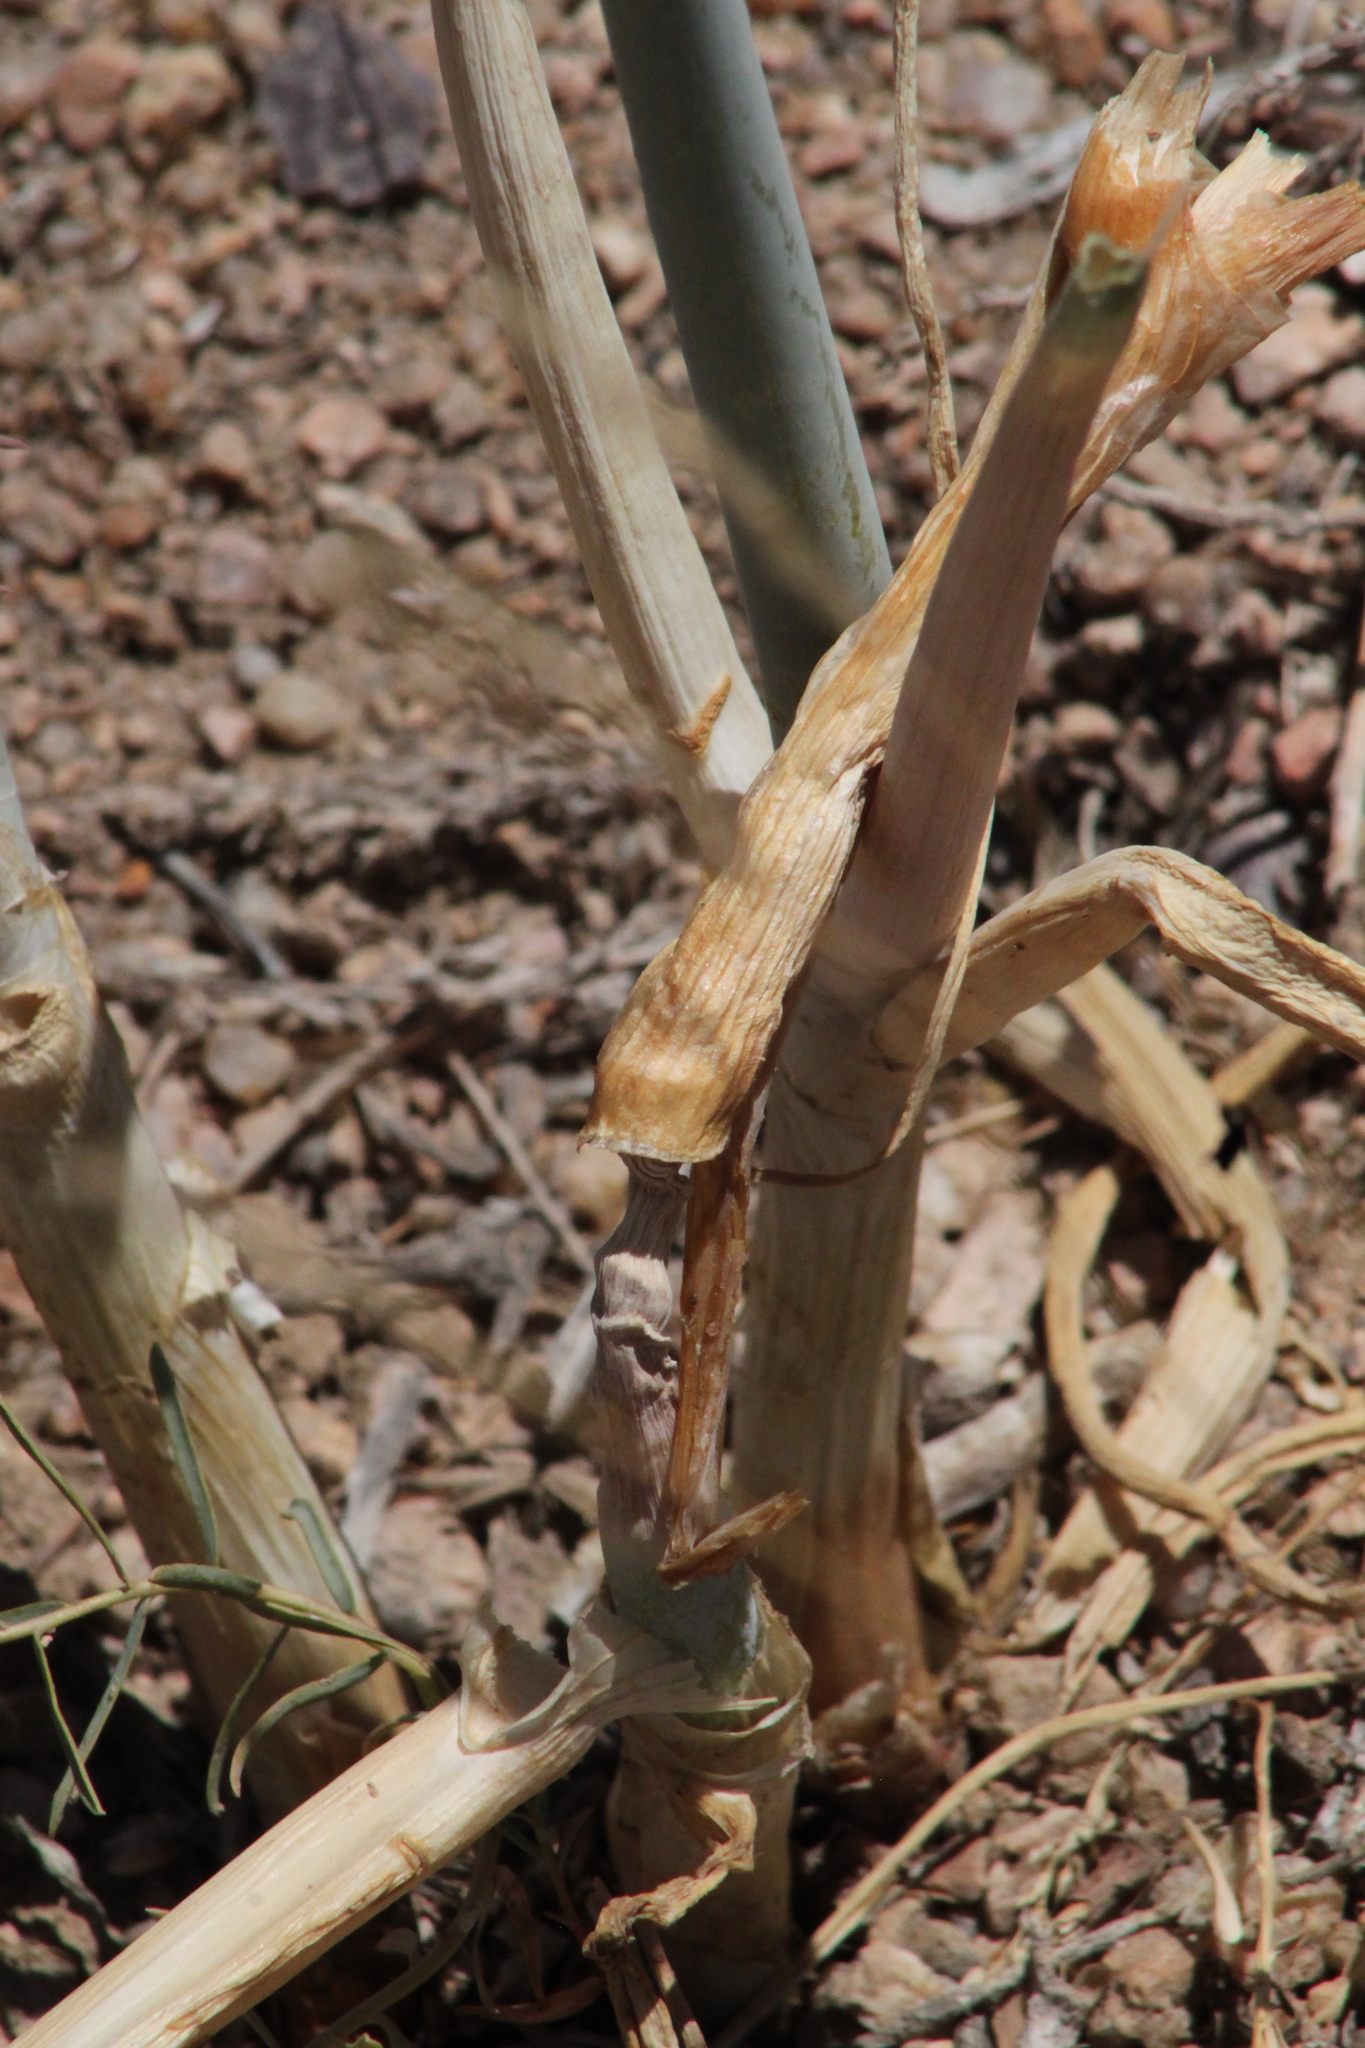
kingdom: Plantae
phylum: Tracheophyta
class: Liliopsida
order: Asparagales
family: Amaryllidaceae
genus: Allium
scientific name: Allium galanthum
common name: Snowdrop onion
